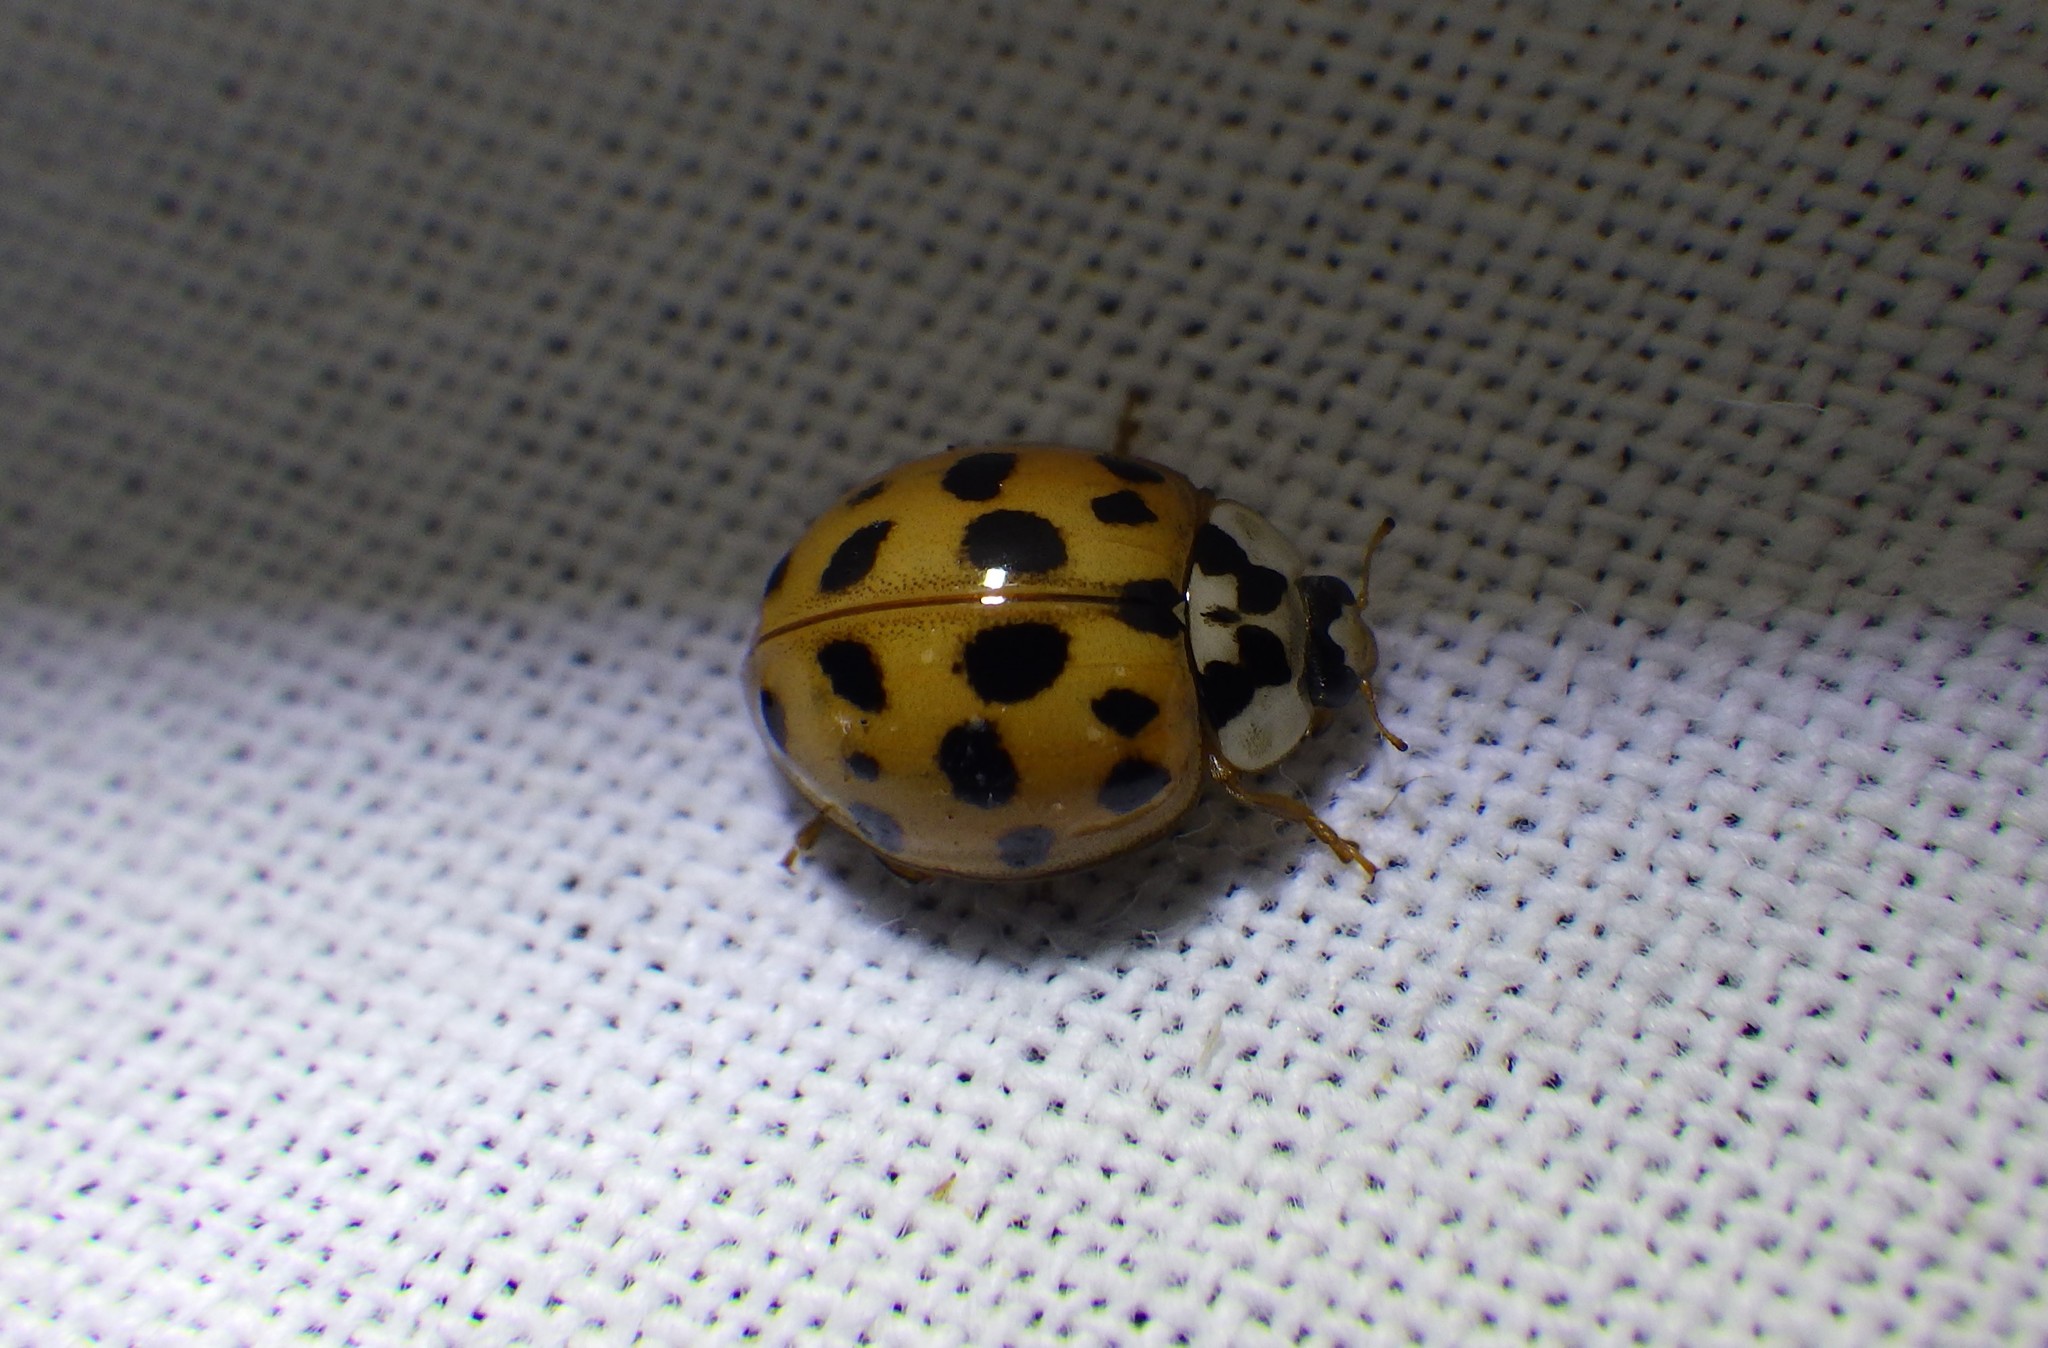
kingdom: Animalia
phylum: Arthropoda
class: Insecta
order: Coleoptera
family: Coccinellidae
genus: Harmonia
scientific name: Harmonia axyridis
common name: Harlequin ladybird
